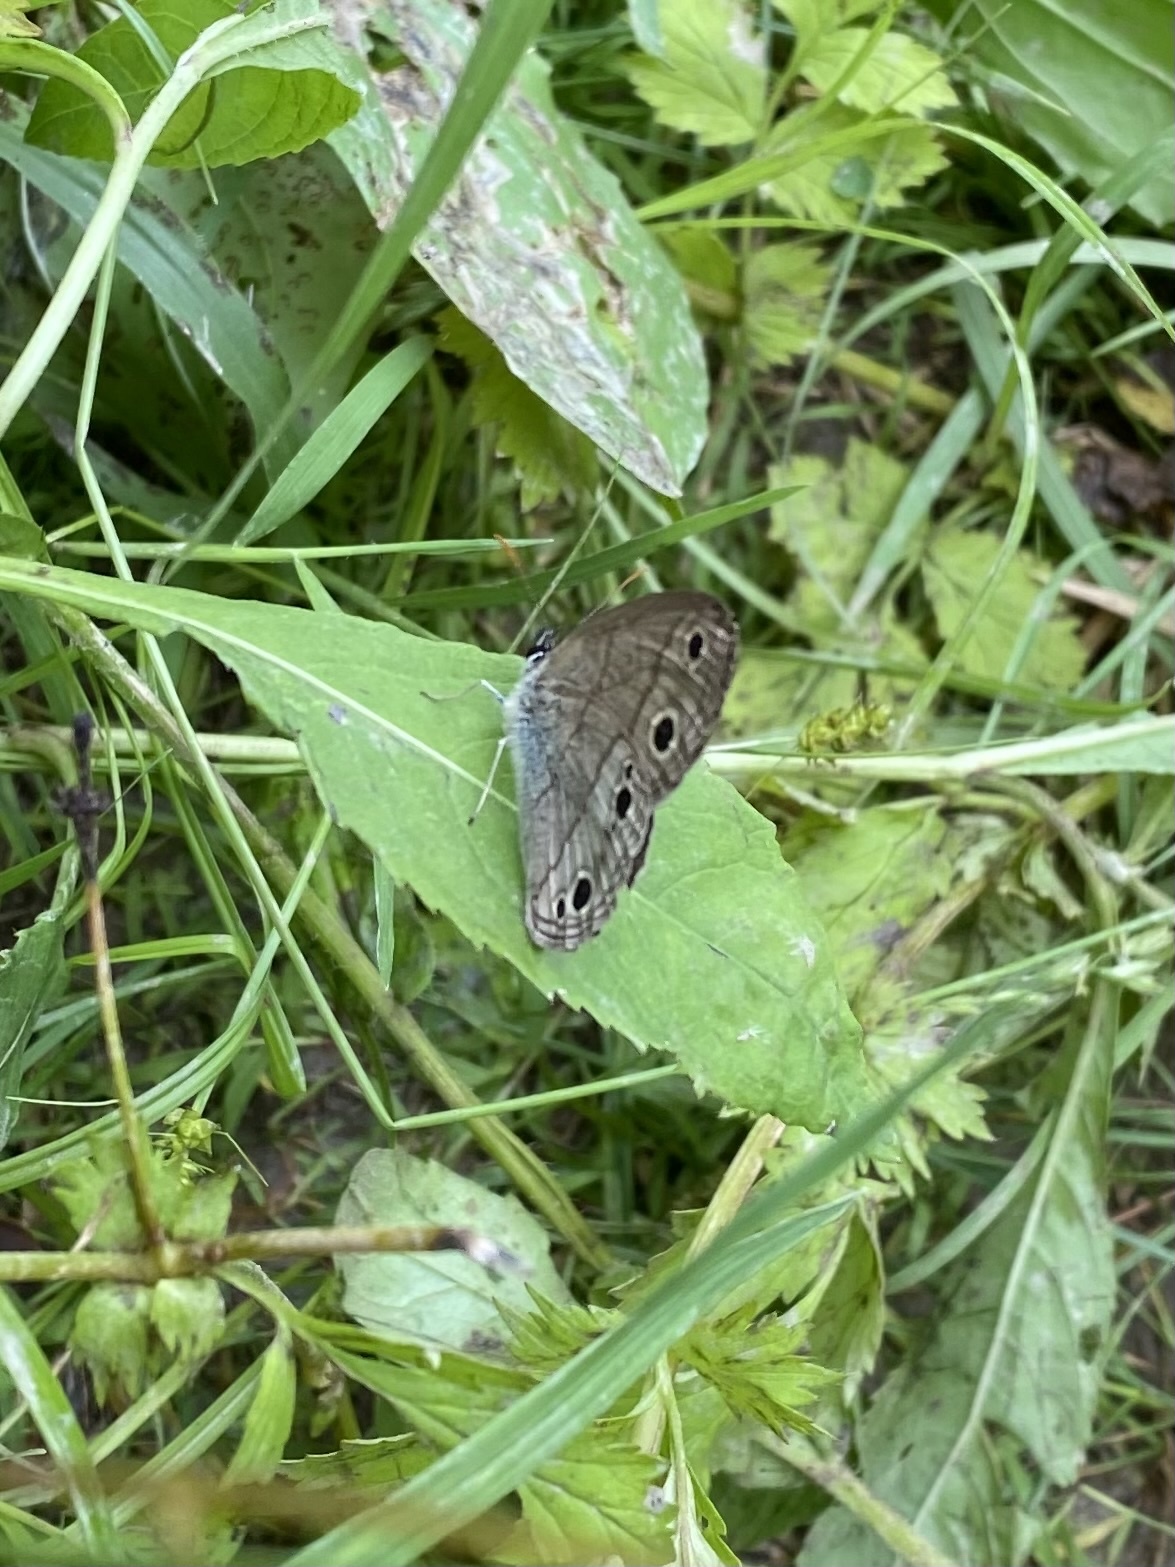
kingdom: Animalia
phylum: Arthropoda
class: Insecta
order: Lepidoptera
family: Nymphalidae
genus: Euptychia
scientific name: Euptychia cymela
